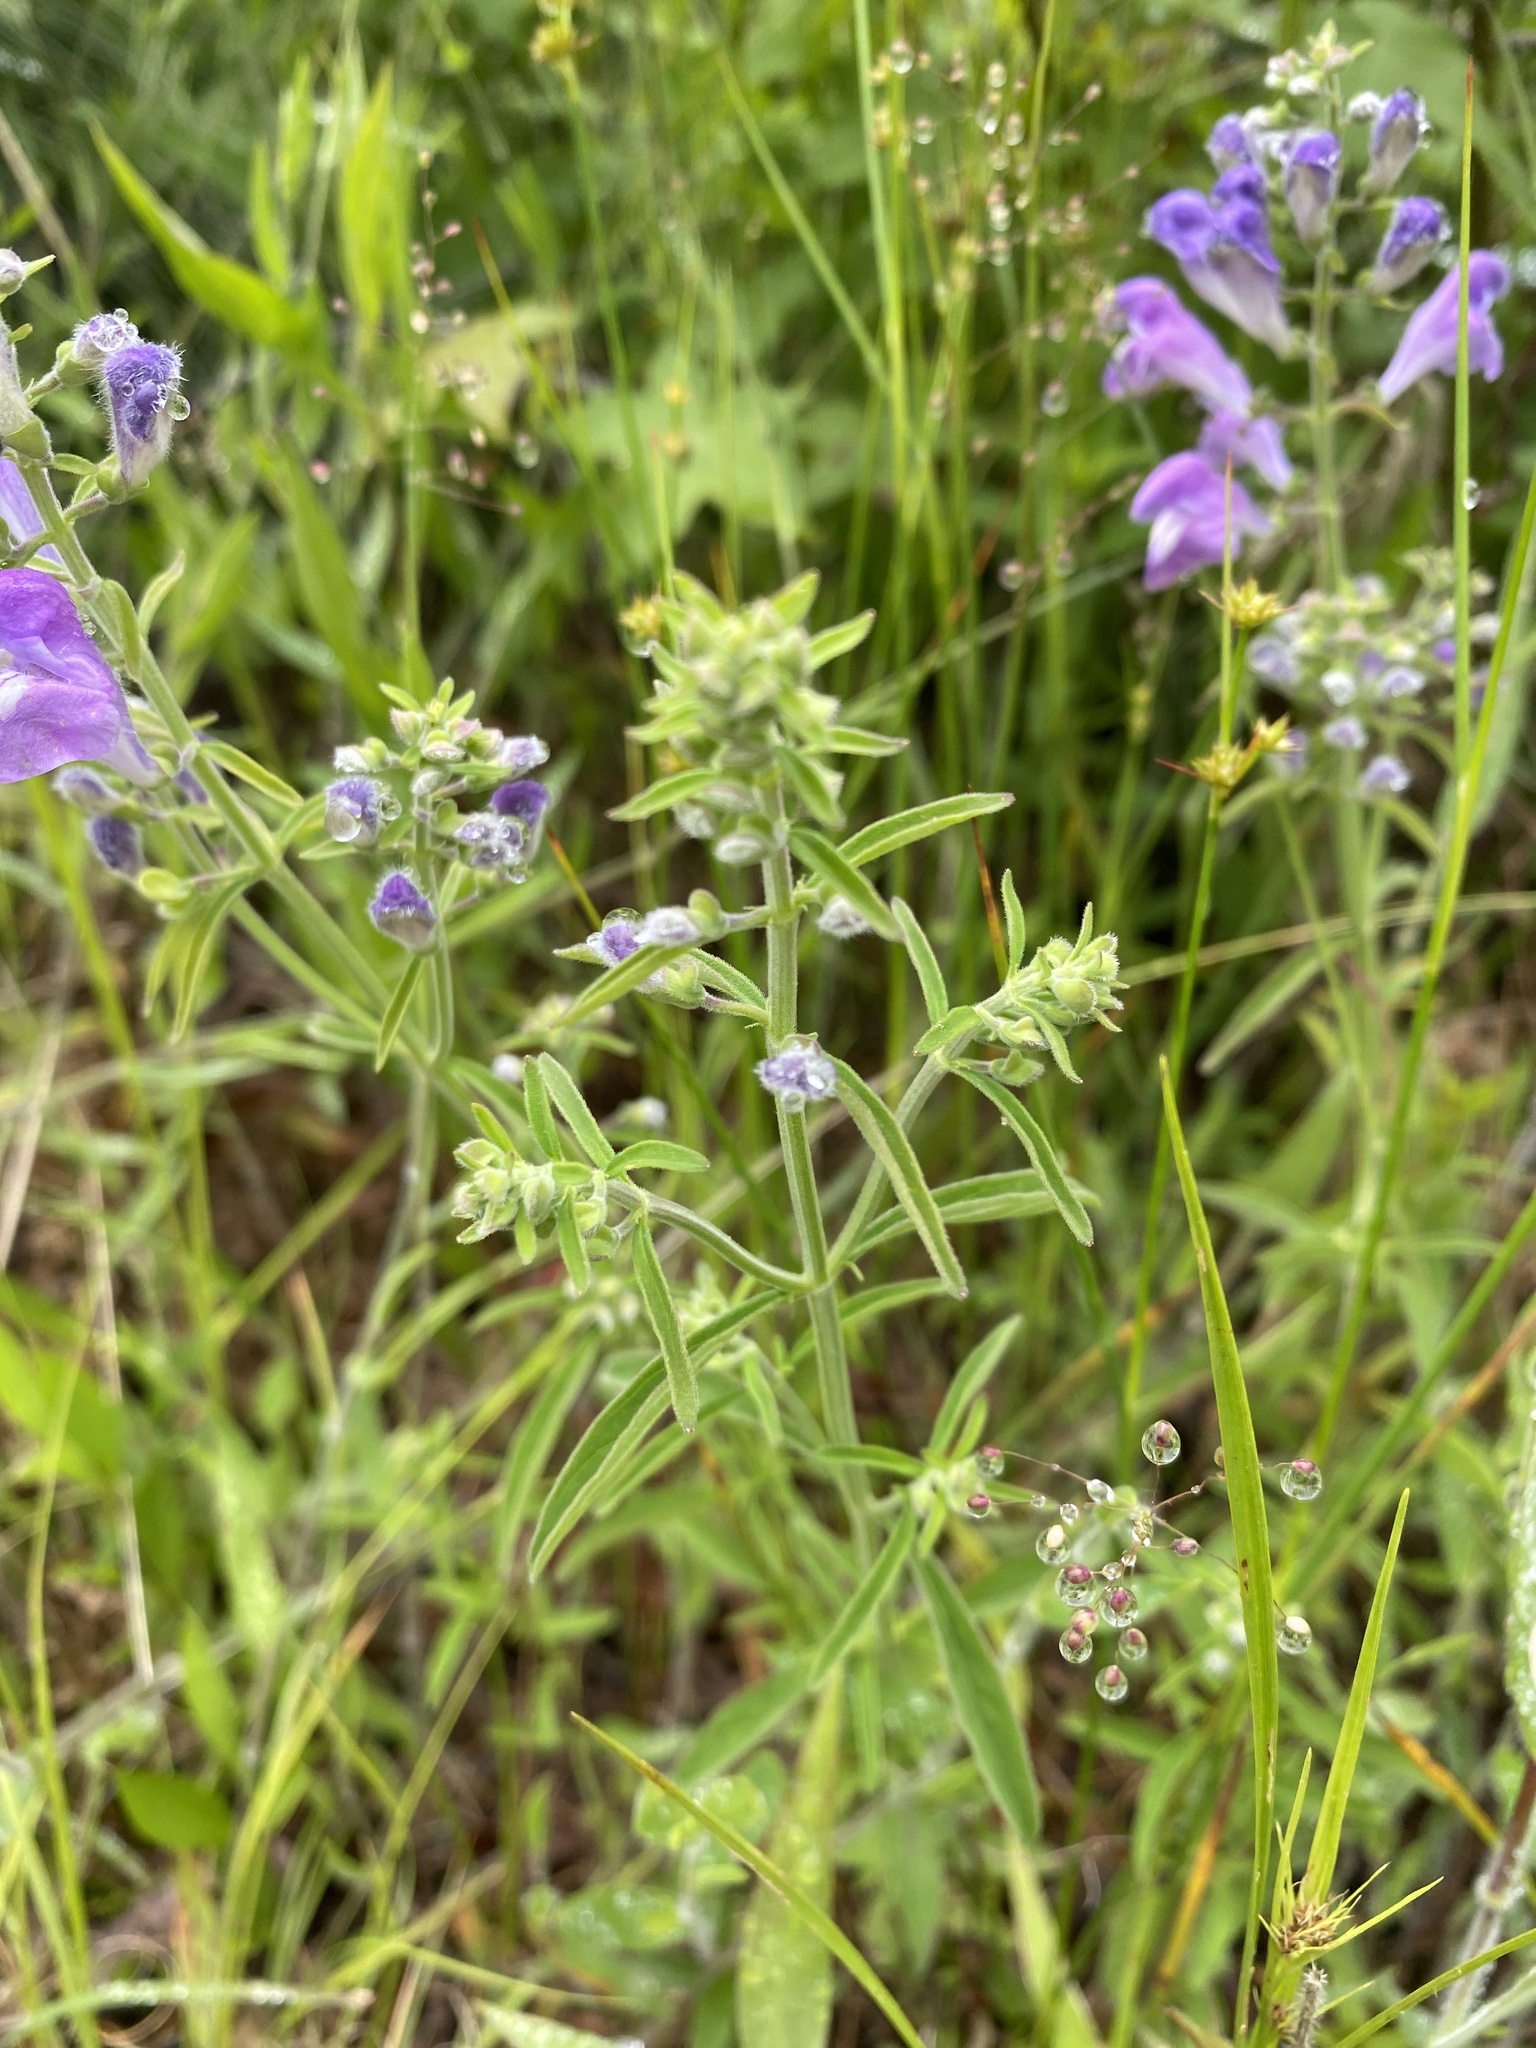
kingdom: Plantae
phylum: Tracheophyta
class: Magnoliopsida
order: Lamiales
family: Lamiaceae
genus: Scutellaria
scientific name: Scutellaria integrifolia
